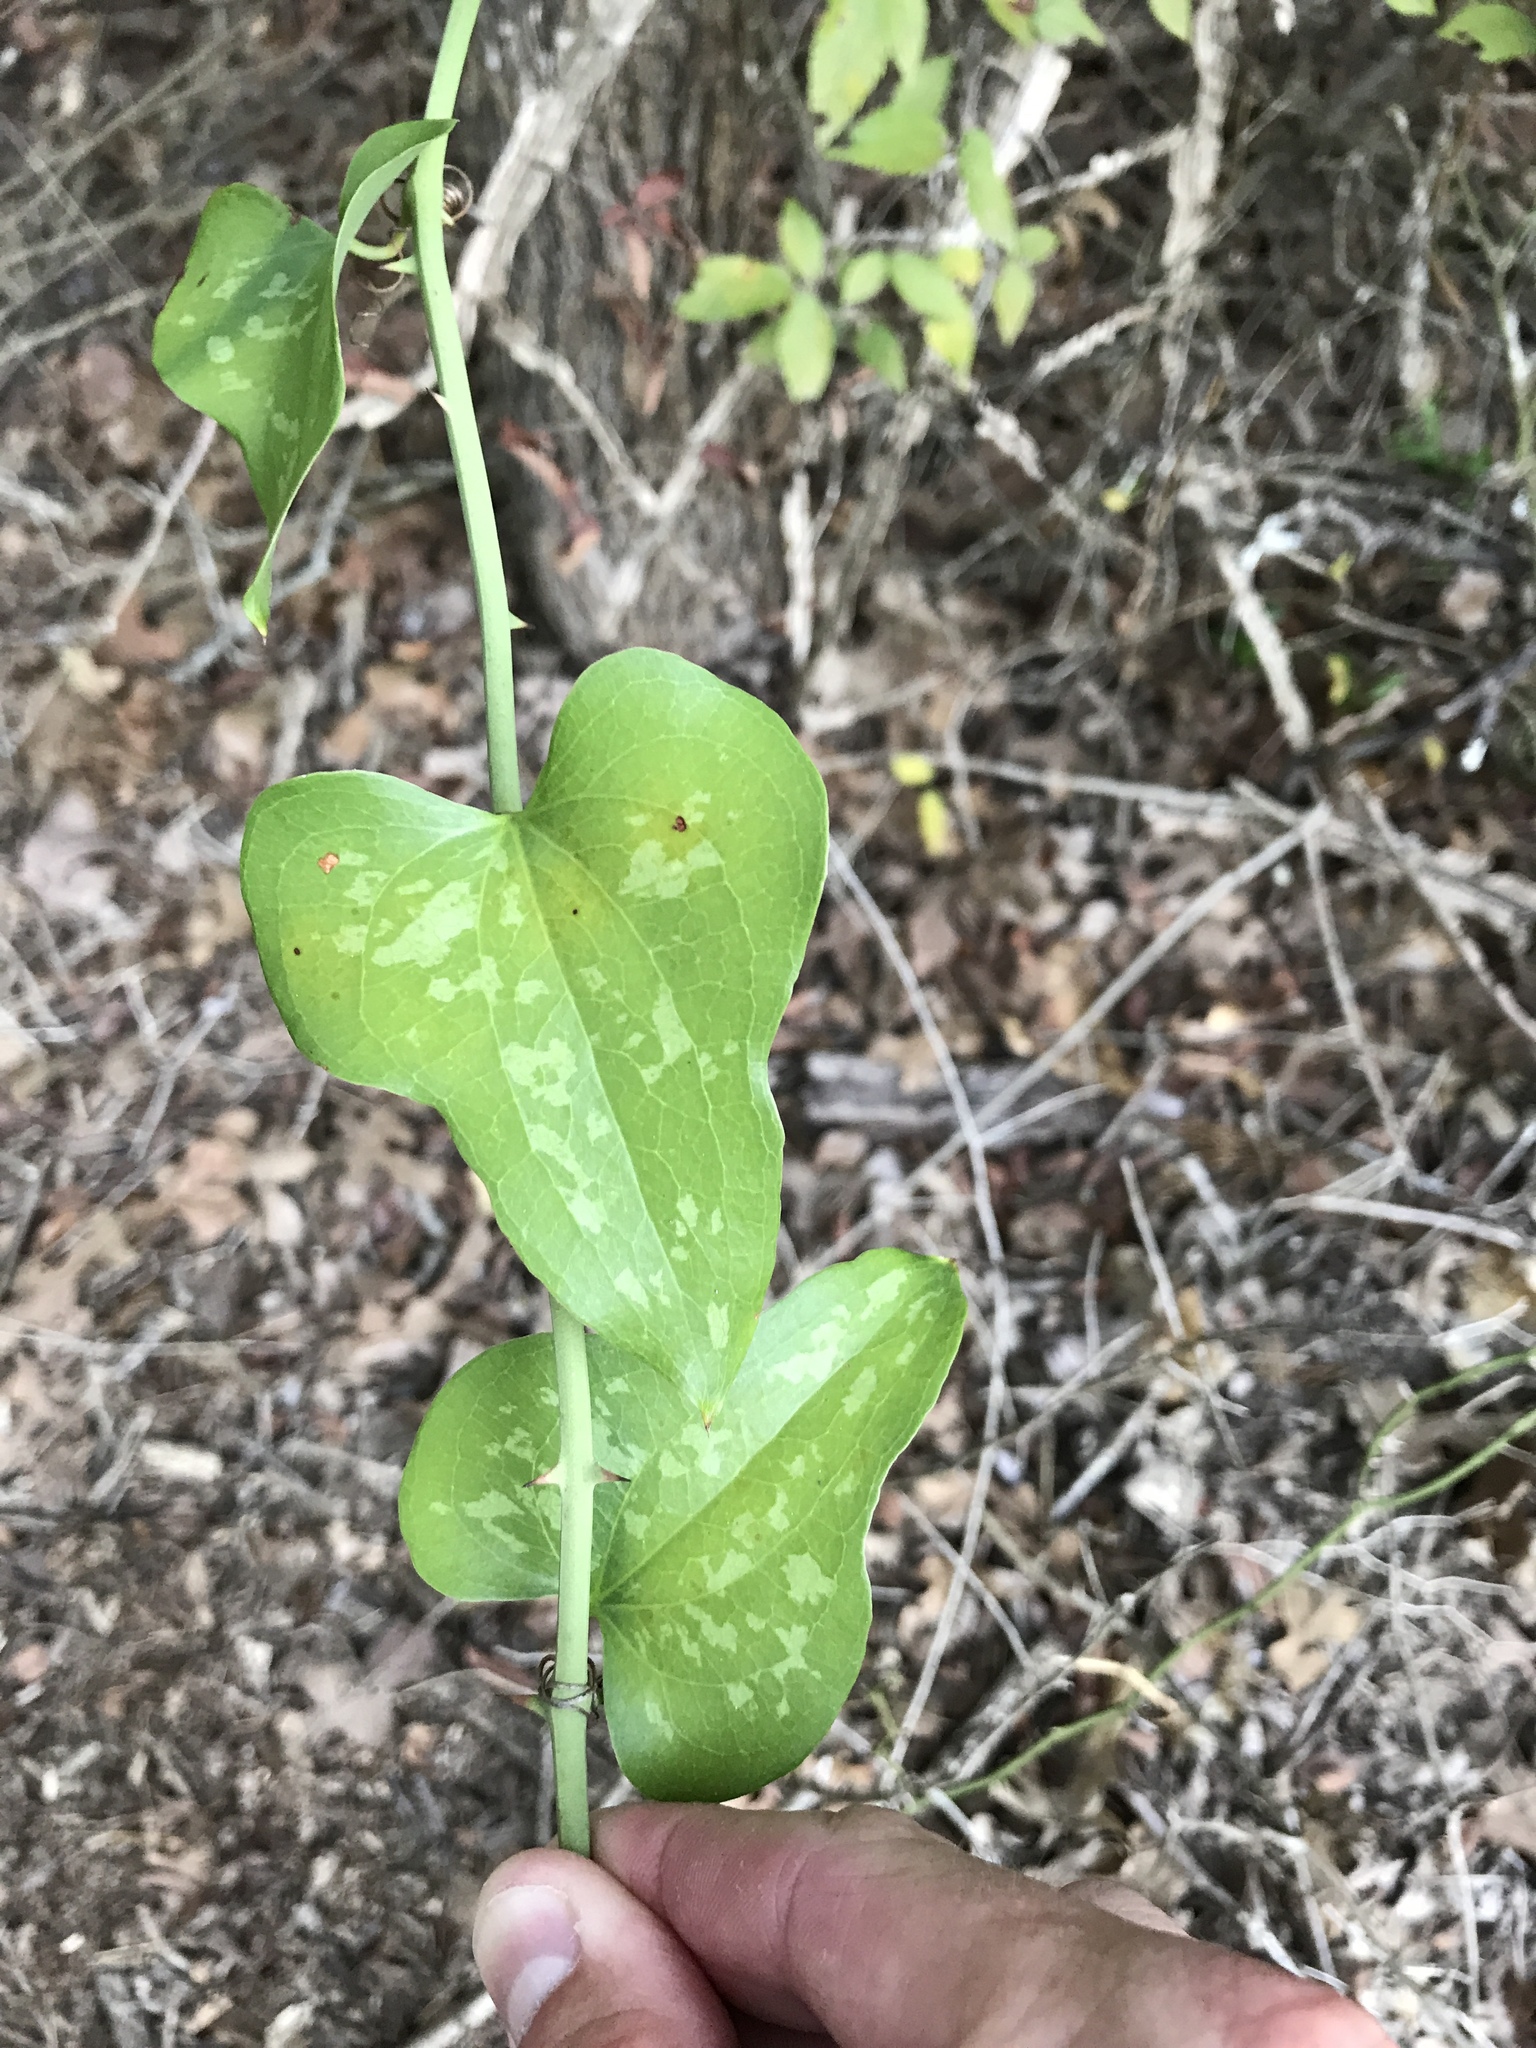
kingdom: Plantae
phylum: Tracheophyta
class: Liliopsida
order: Liliales
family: Smilacaceae
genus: Smilax
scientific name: Smilax bona-nox
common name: Catbrier
